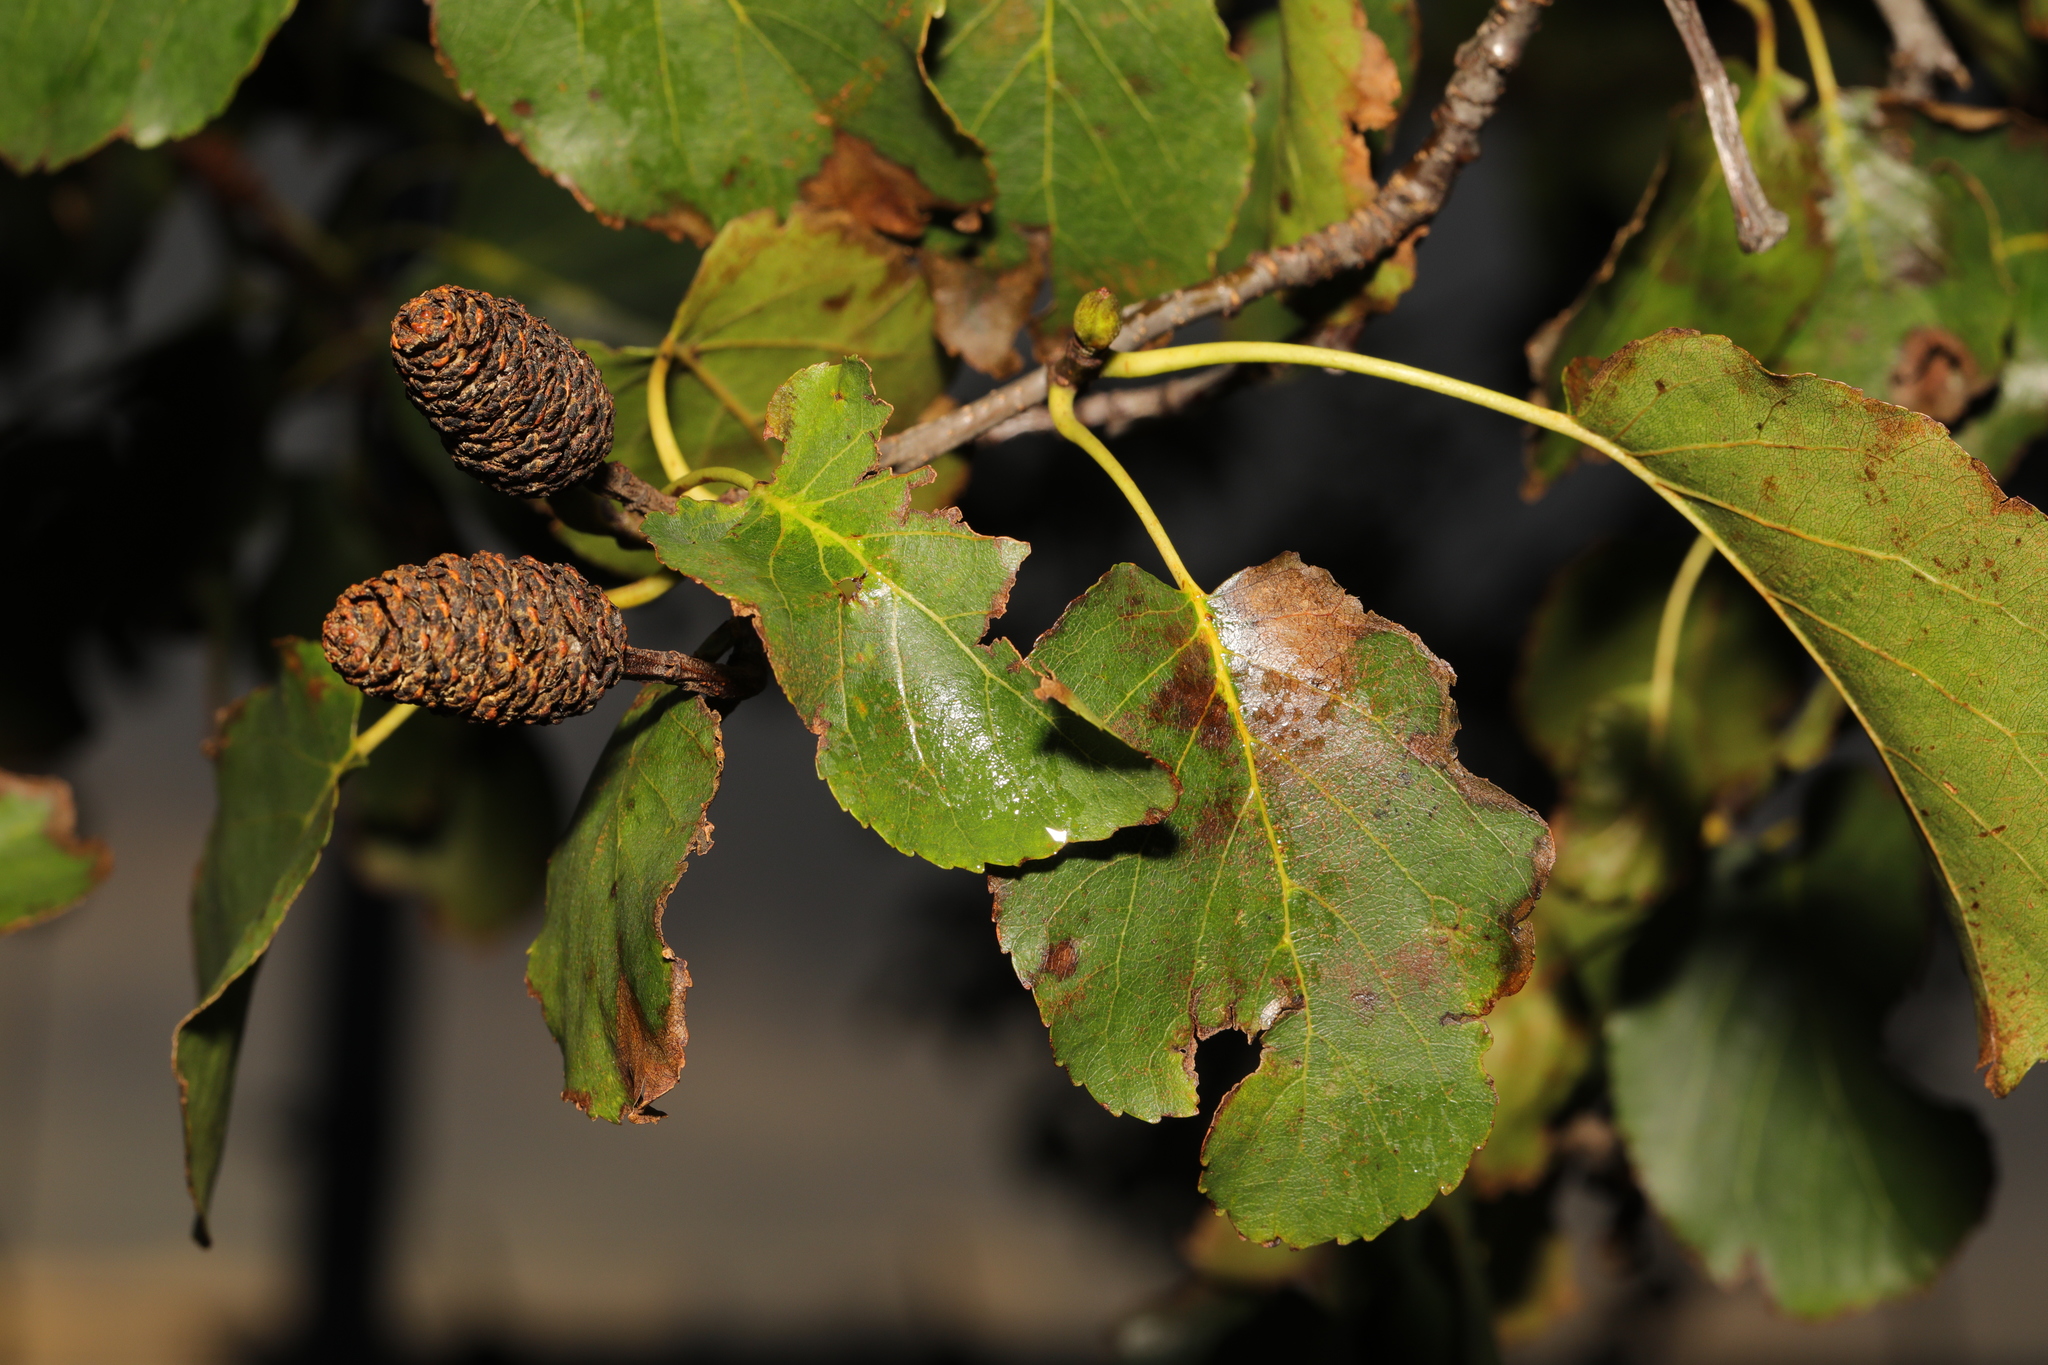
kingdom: Plantae
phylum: Tracheophyta
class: Magnoliopsida
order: Fagales
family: Betulaceae
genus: Alnus
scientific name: Alnus cordata
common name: Italian alder
